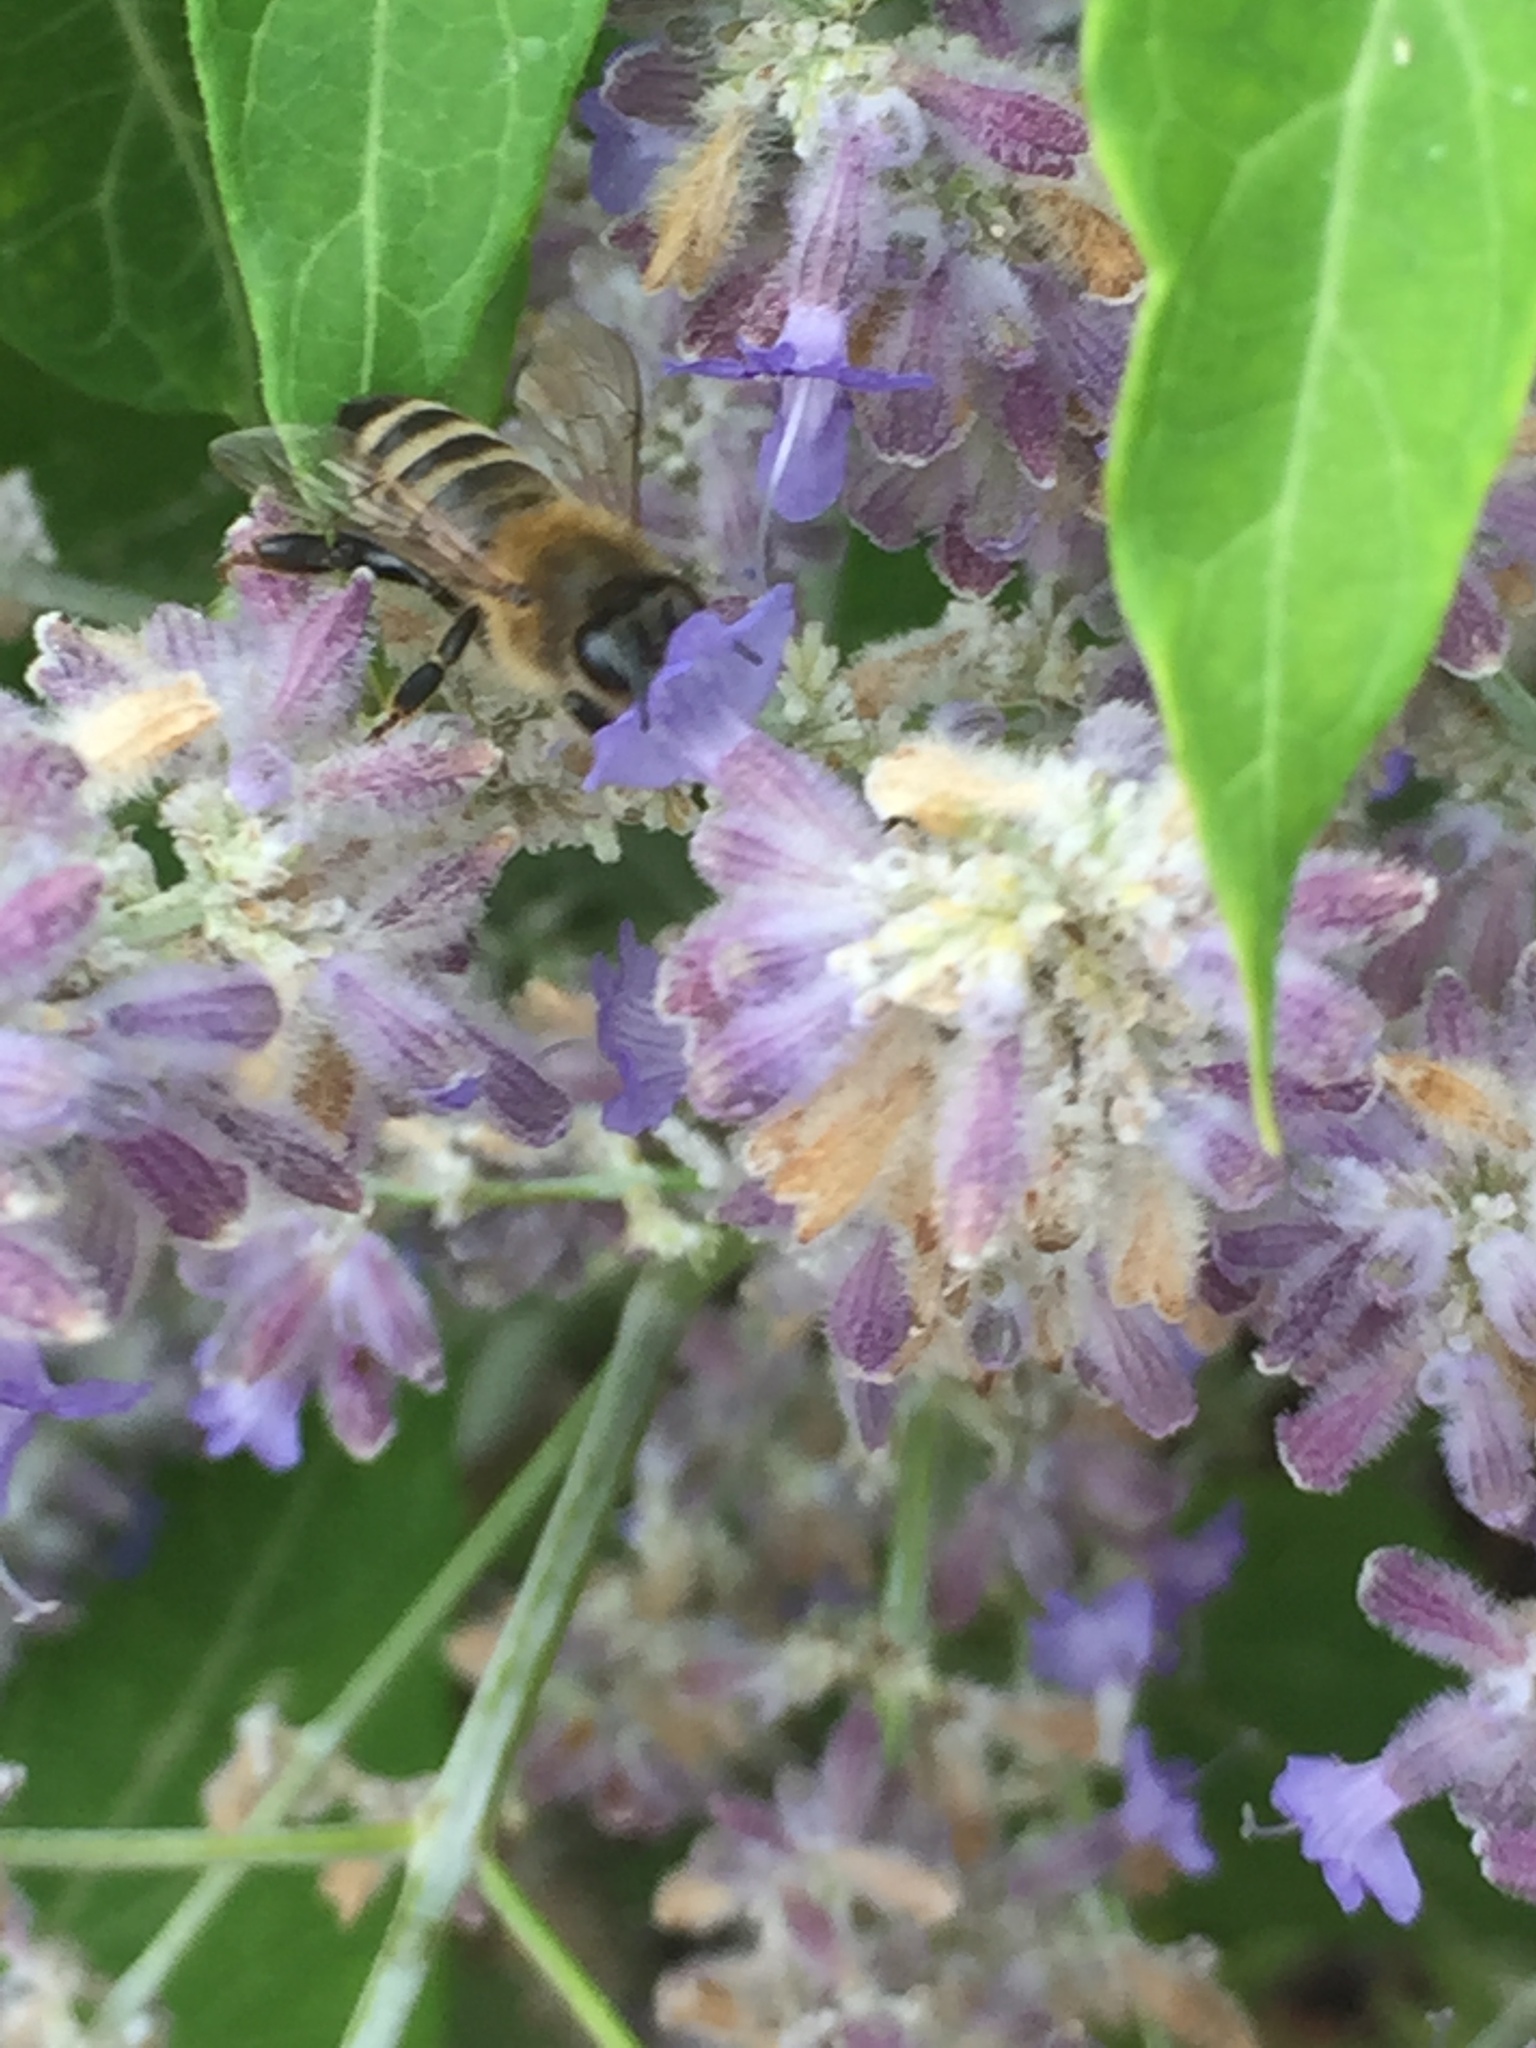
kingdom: Animalia
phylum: Arthropoda
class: Insecta
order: Hymenoptera
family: Apidae
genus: Apis
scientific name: Apis mellifera
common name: Honey bee
